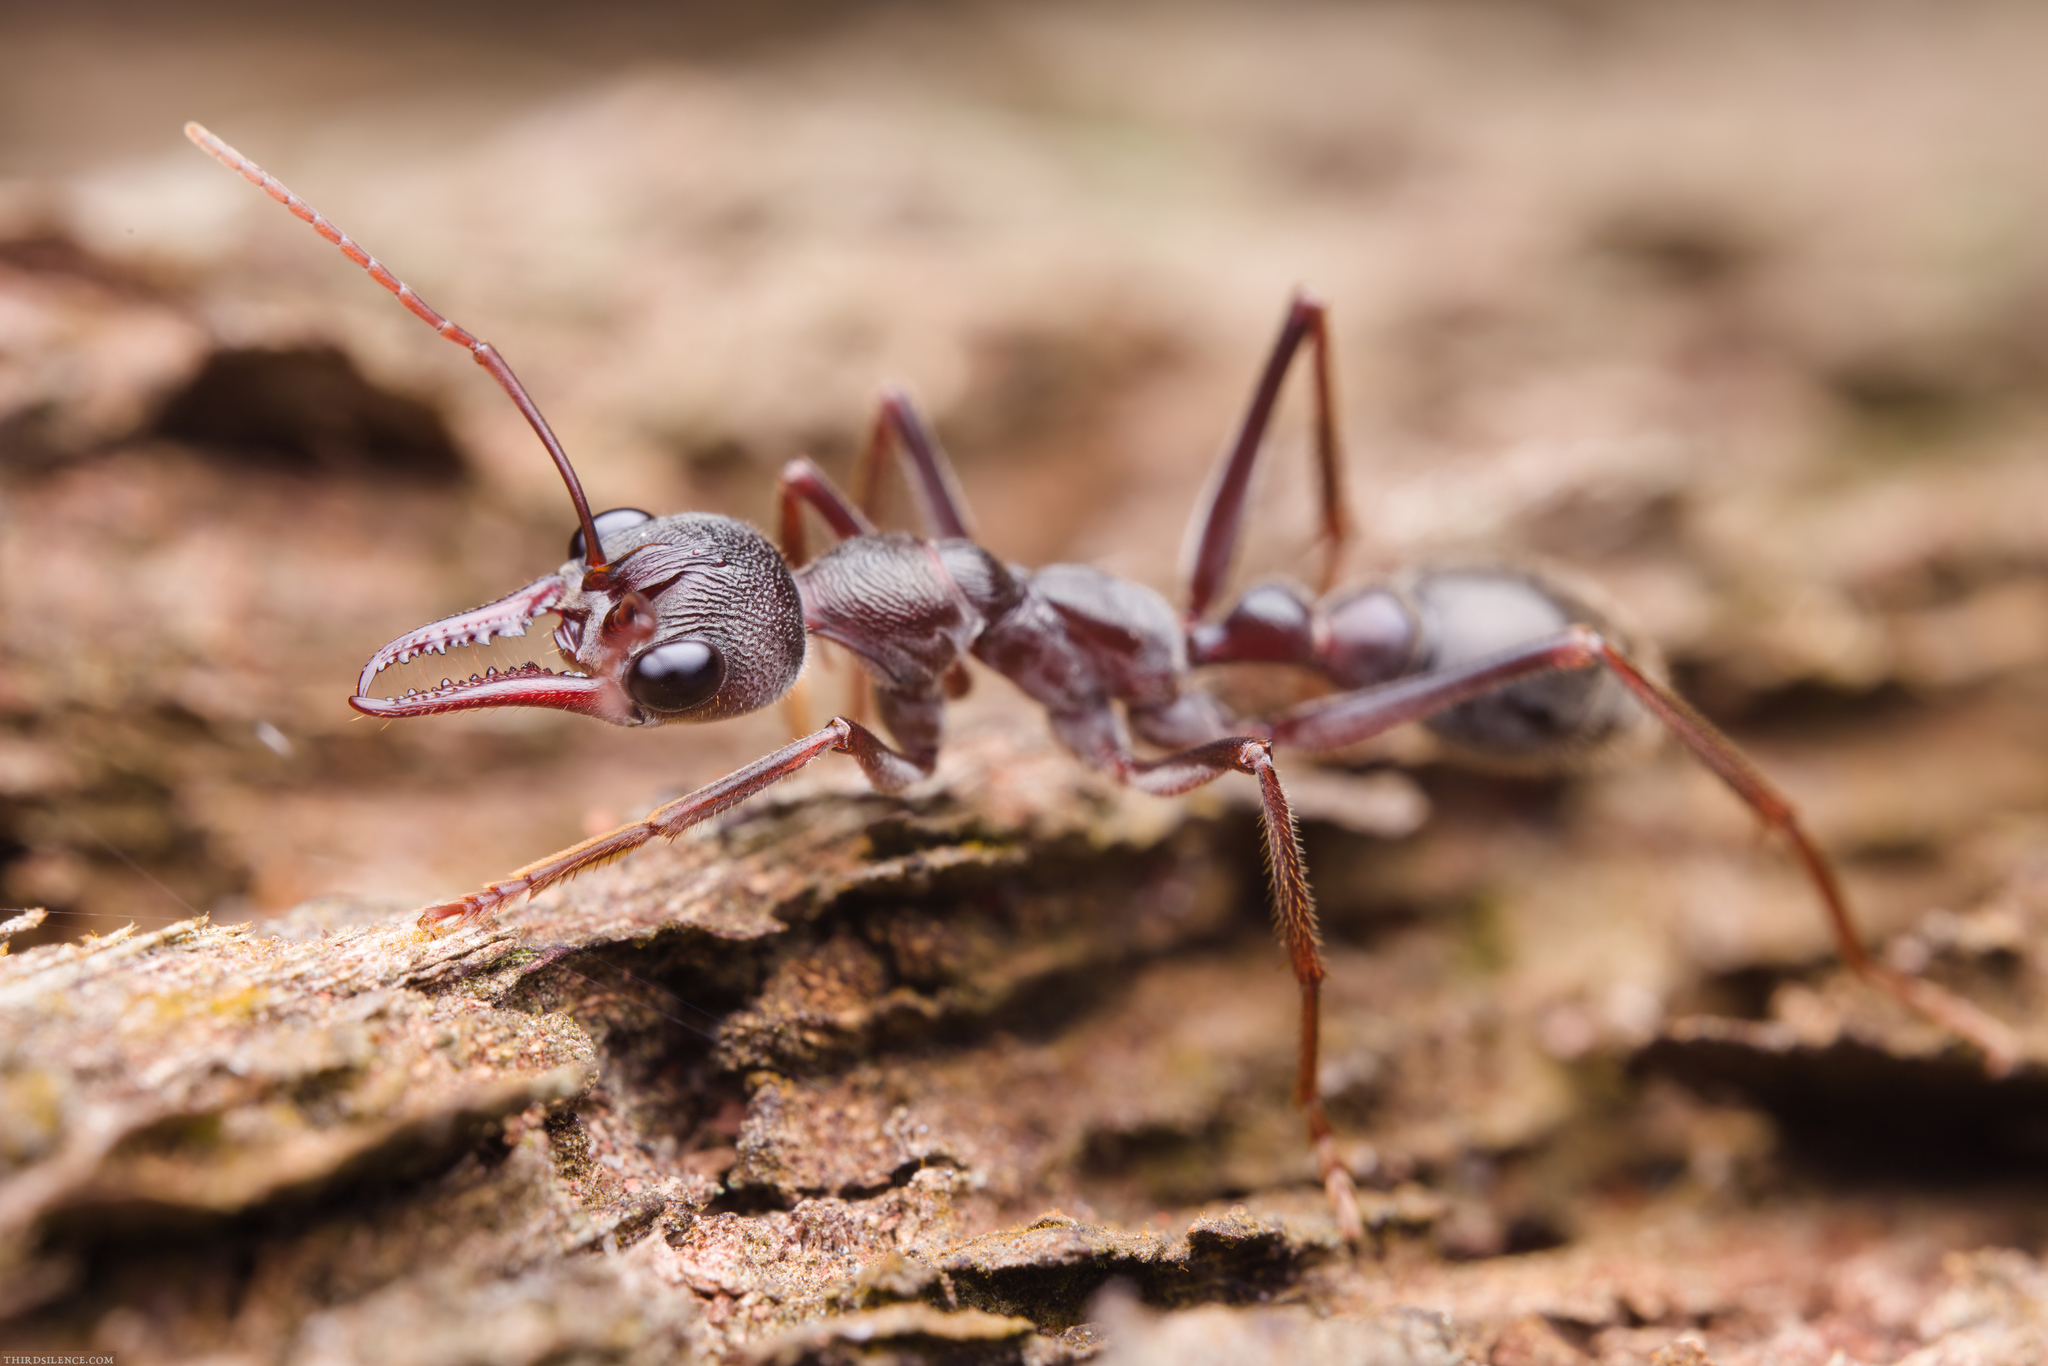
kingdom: Animalia
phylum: Arthropoda
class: Insecta
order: Hymenoptera
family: Formicidae
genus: Myrmecia
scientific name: Myrmecia forficata
